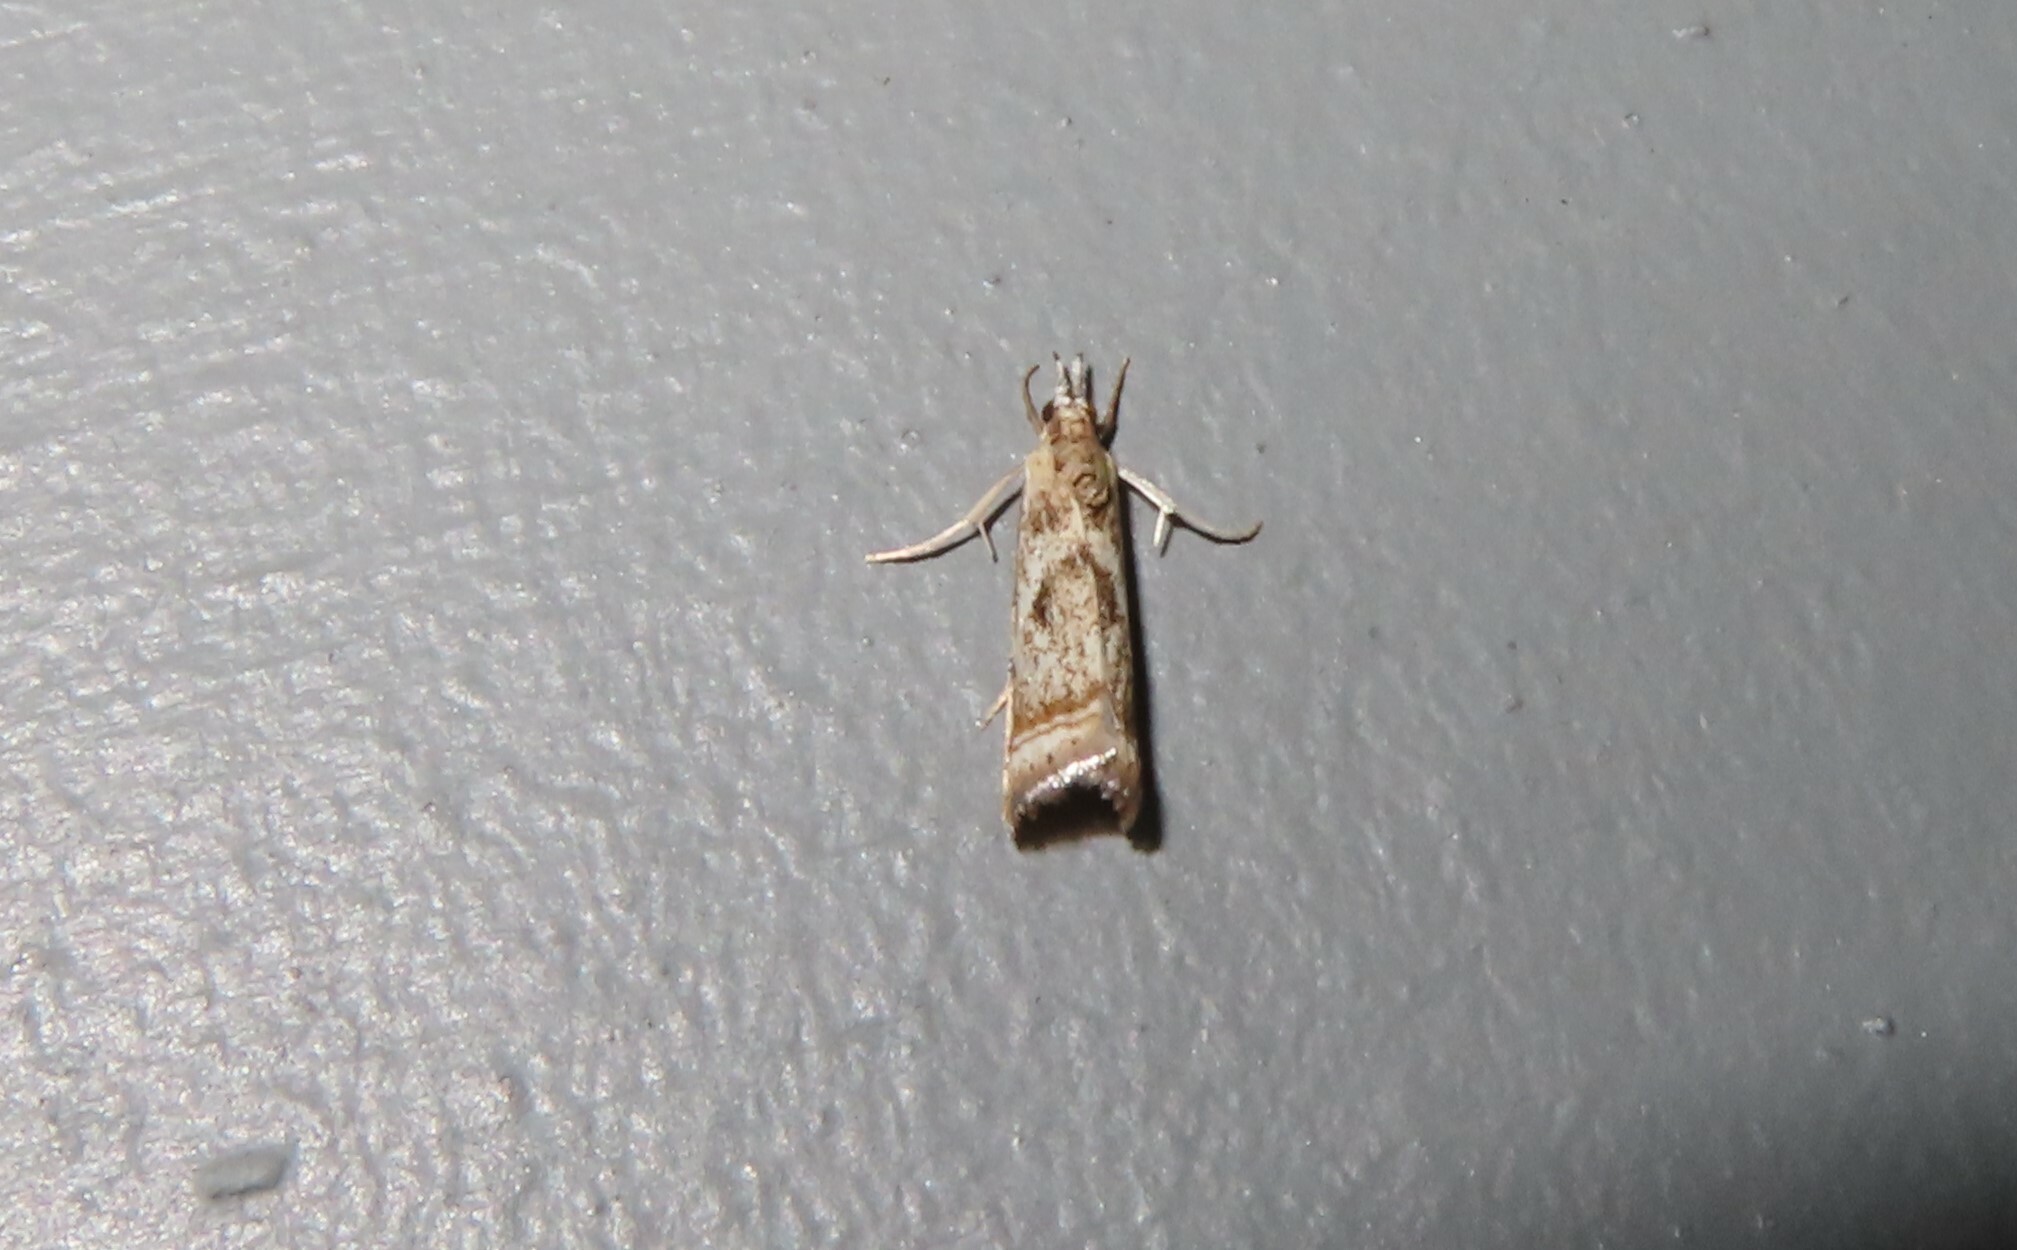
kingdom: Animalia
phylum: Arthropoda
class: Insecta
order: Lepidoptera
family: Crambidae
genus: Microcrambus
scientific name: Microcrambus elegans
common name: Elegant grass-veneer
